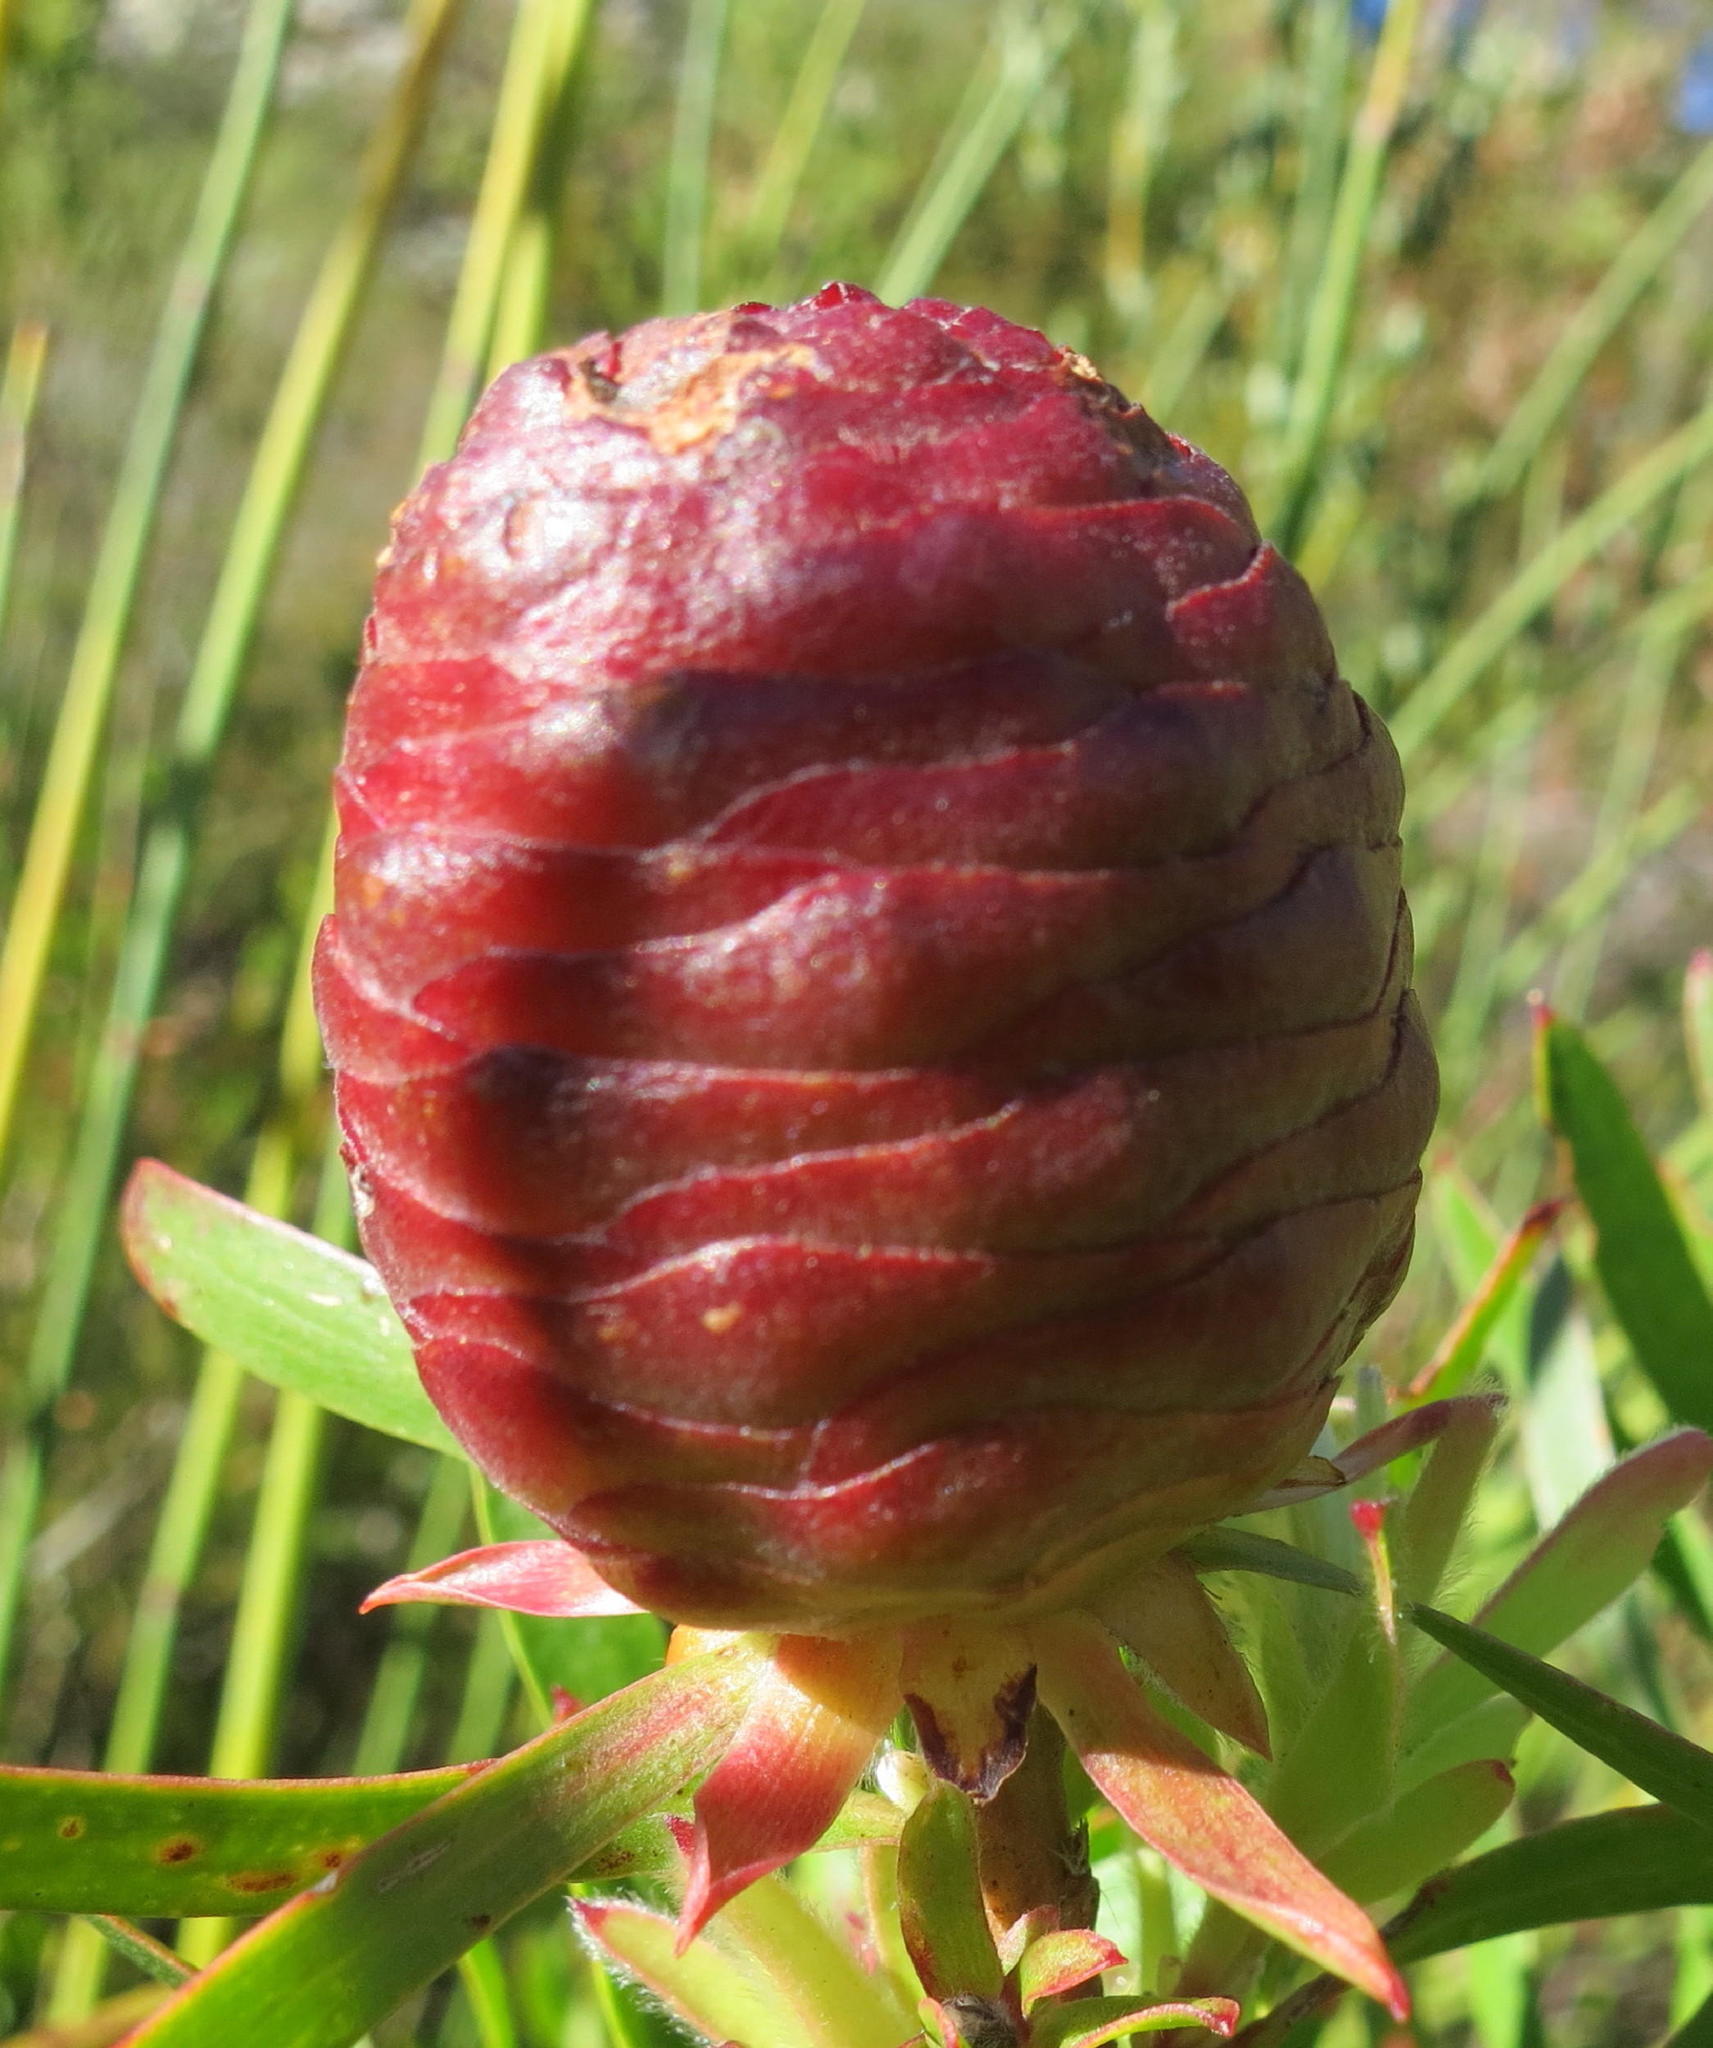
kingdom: Plantae
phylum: Tracheophyta
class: Magnoliopsida
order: Proteales
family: Proteaceae
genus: Leucadendron
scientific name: Leucadendron conicum
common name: Garden route conebush
